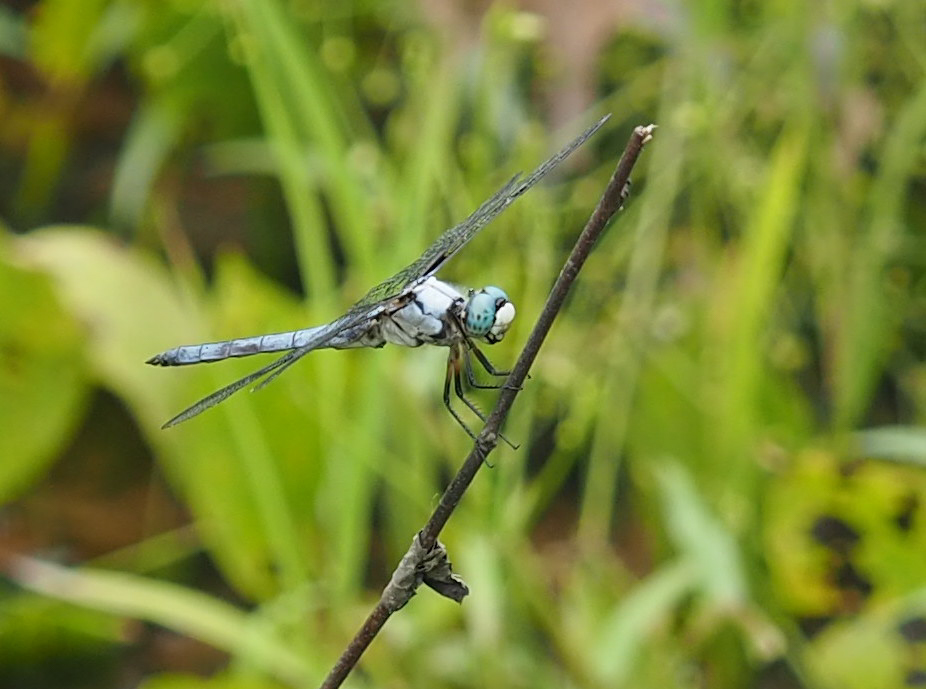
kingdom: Animalia
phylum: Arthropoda
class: Insecta
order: Odonata
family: Libellulidae
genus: Libellula
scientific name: Libellula vibrans
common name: Great blue skimmer
